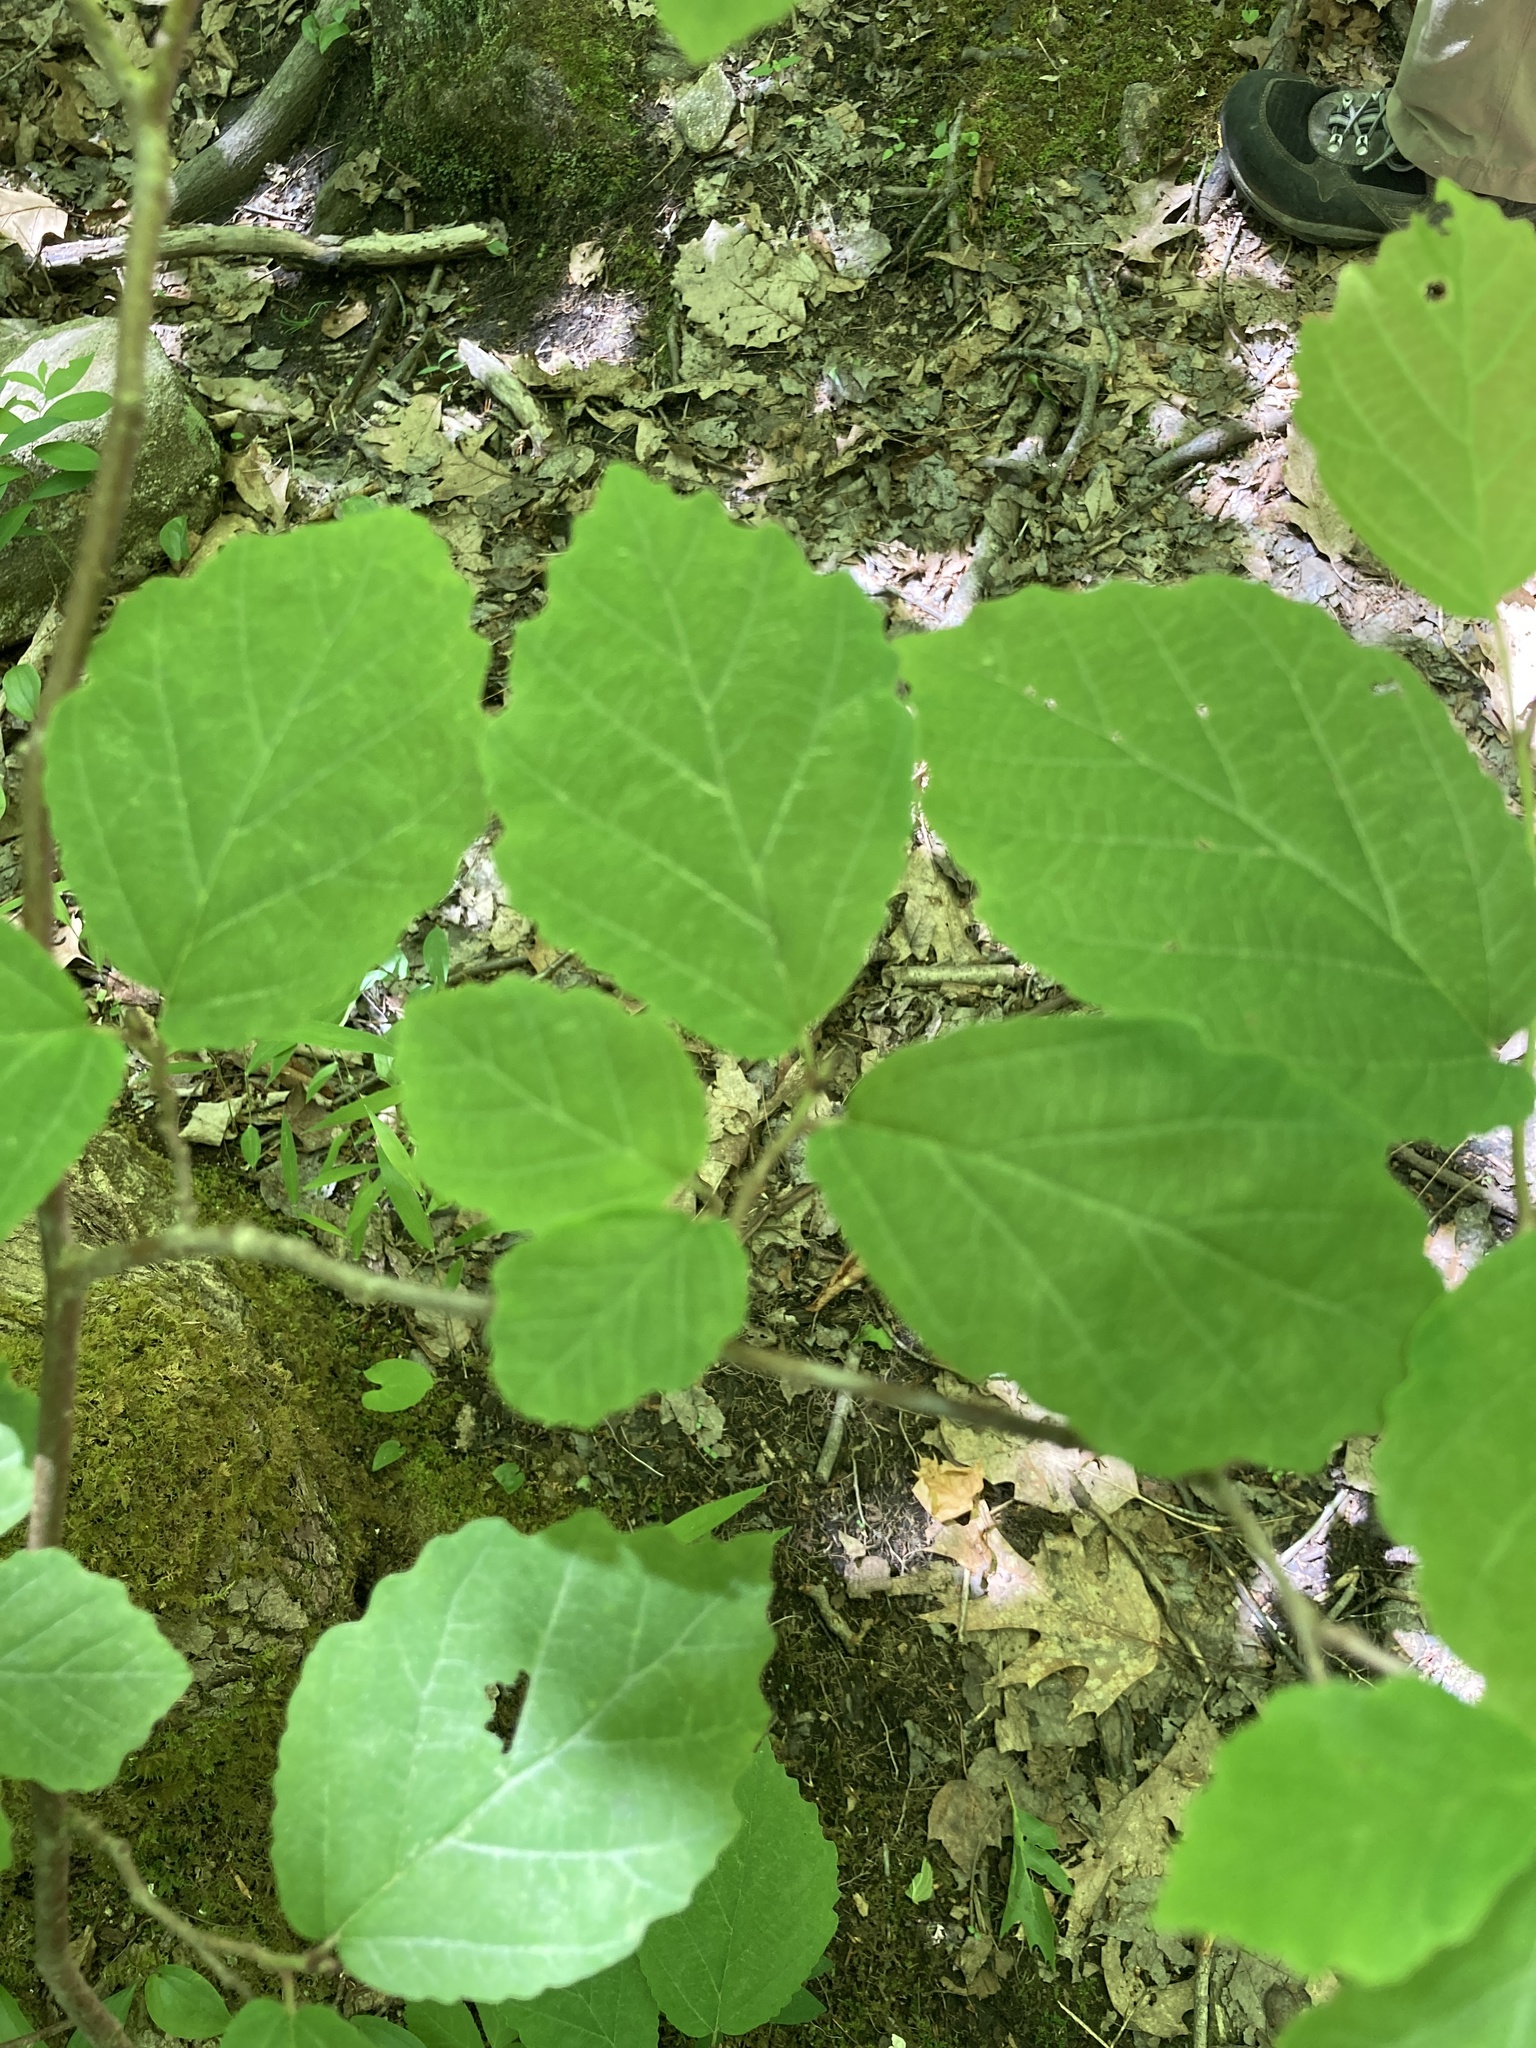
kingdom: Plantae
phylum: Tracheophyta
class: Magnoliopsida
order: Saxifragales
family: Hamamelidaceae
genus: Hamamelis
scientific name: Hamamelis virginiana
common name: Witch-hazel
